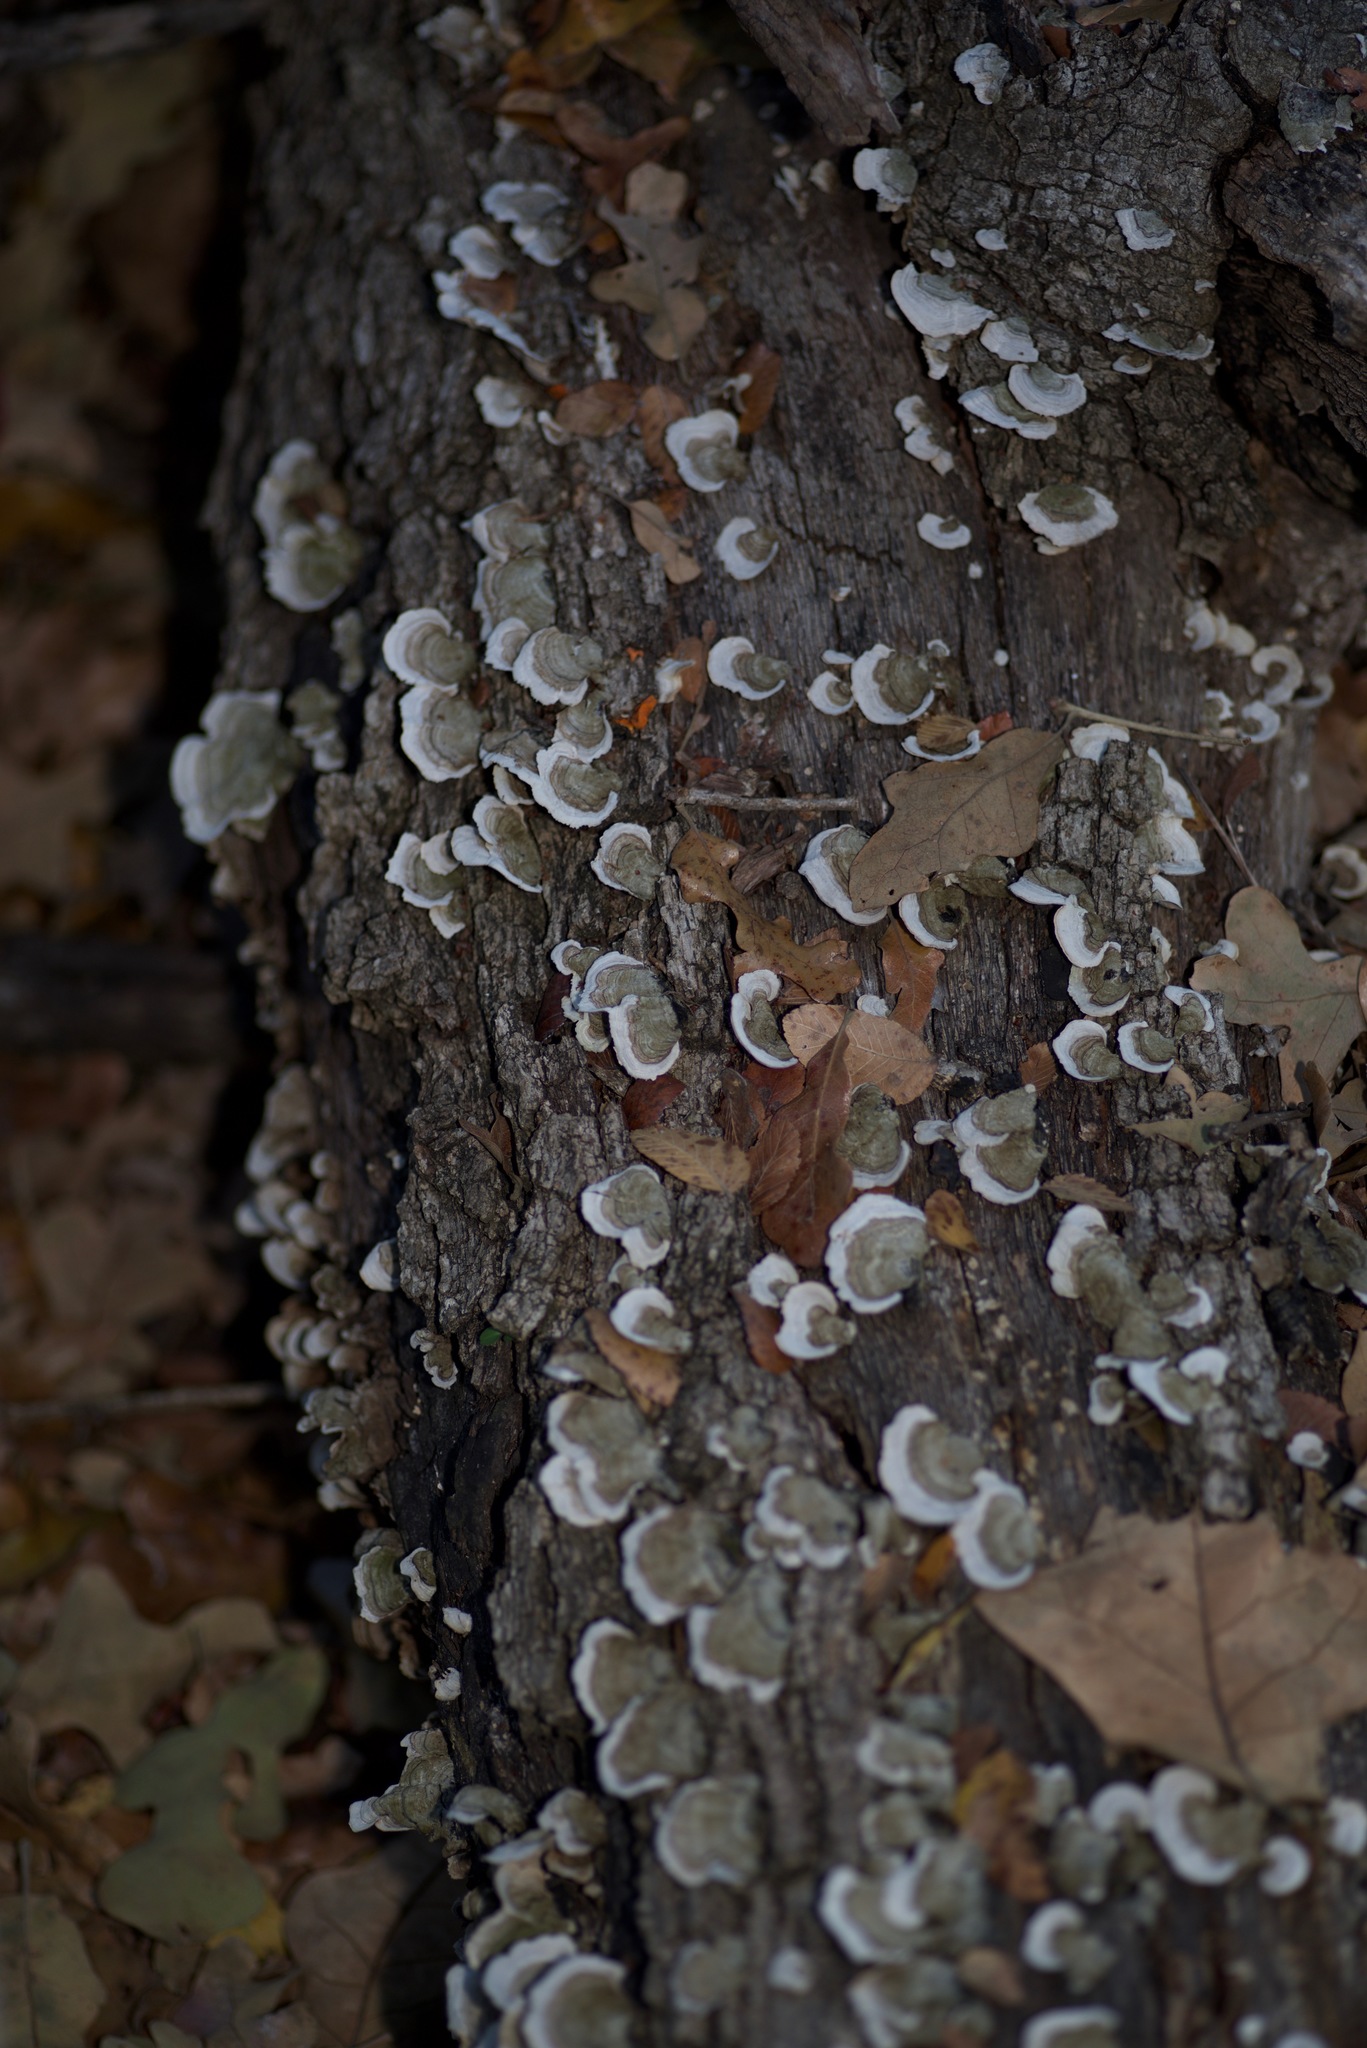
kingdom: Fungi
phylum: Basidiomycota
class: Agaricomycetes
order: Russulales
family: Stereaceae
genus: Stereum
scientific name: Stereum ostrea
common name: False turkeytail
